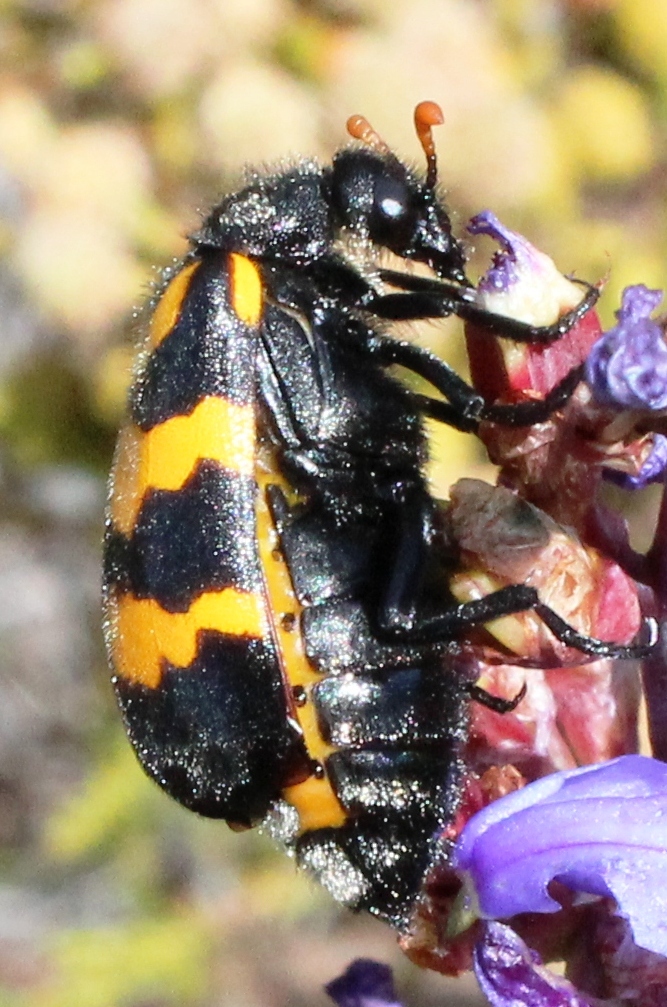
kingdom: Animalia
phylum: Arthropoda
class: Insecta
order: Coleoptera
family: Meloidae
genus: Meloe
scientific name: Meloe lunata
